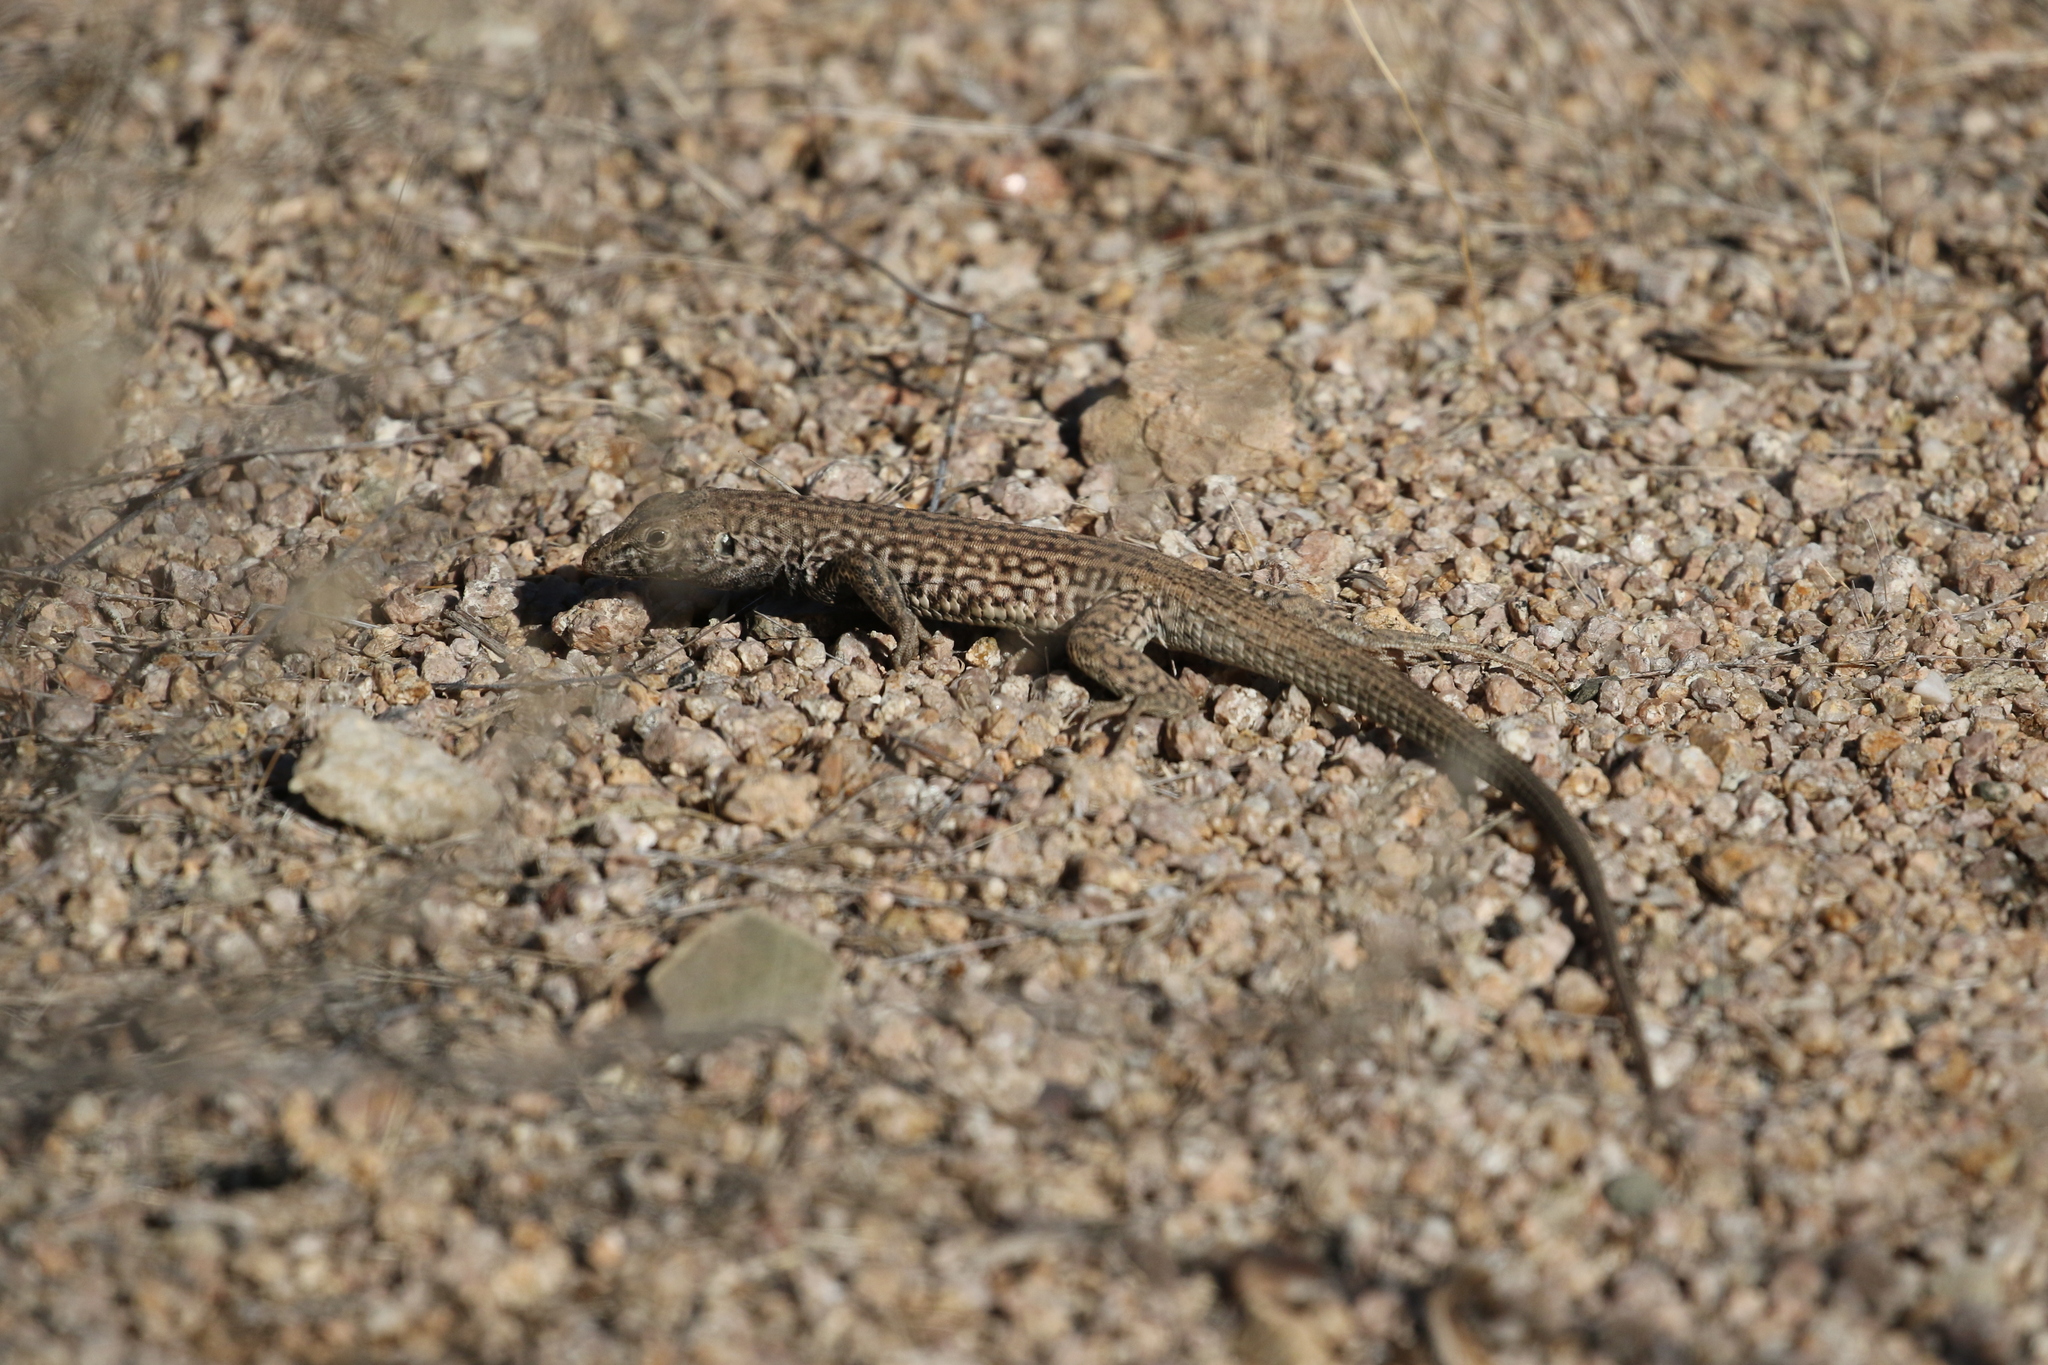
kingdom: Animalia
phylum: Chordata
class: Squamata
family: Teiidae
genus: Aspidoscelis
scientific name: Aspidoscelis tigris
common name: Tiger whiptail
